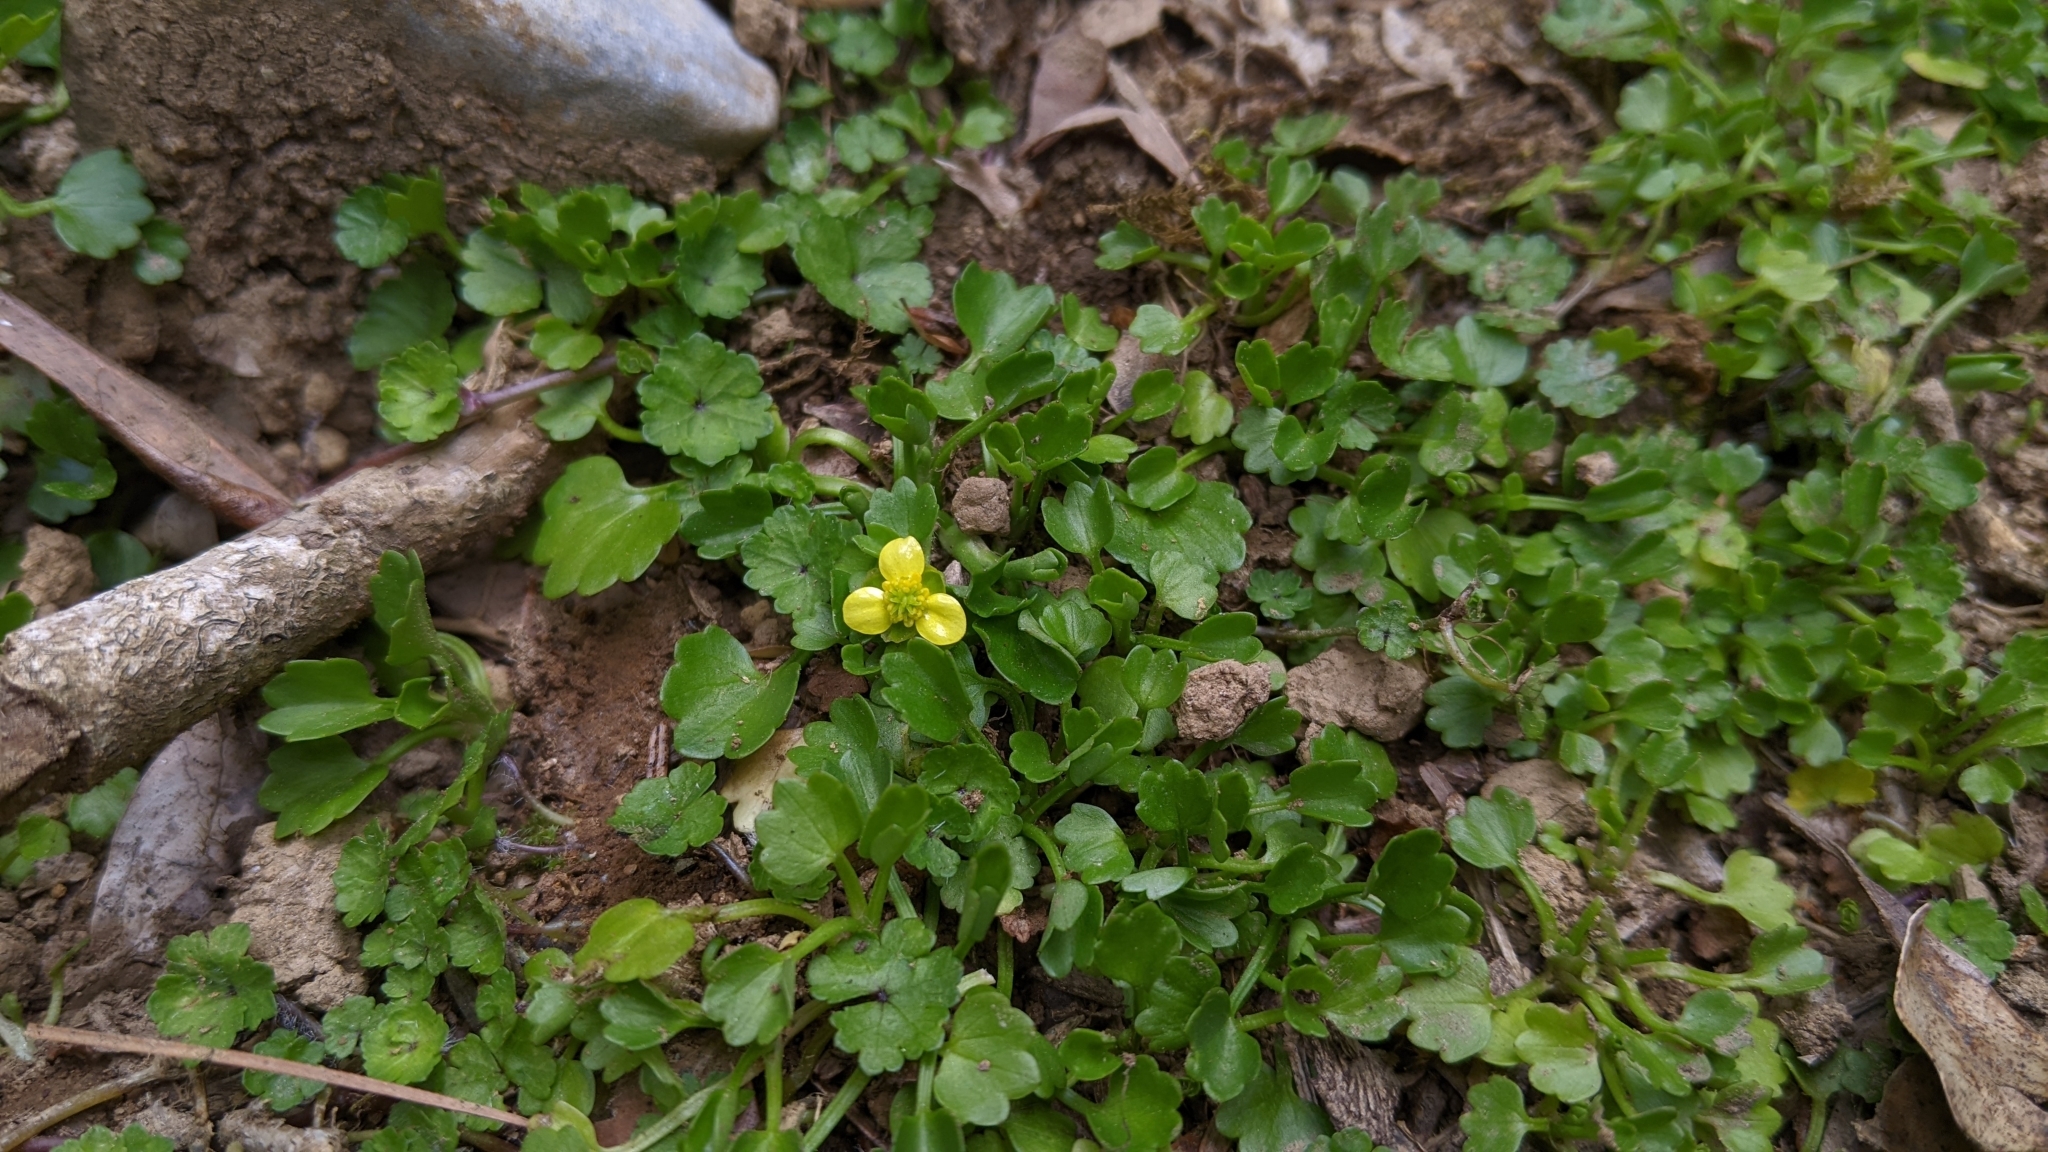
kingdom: Plantae
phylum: Tracheophyta
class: Magnoliopsida
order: Ranunculales
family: Ranunculaceae
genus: Ranunculus
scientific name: Ranunculus cheirophyllus
